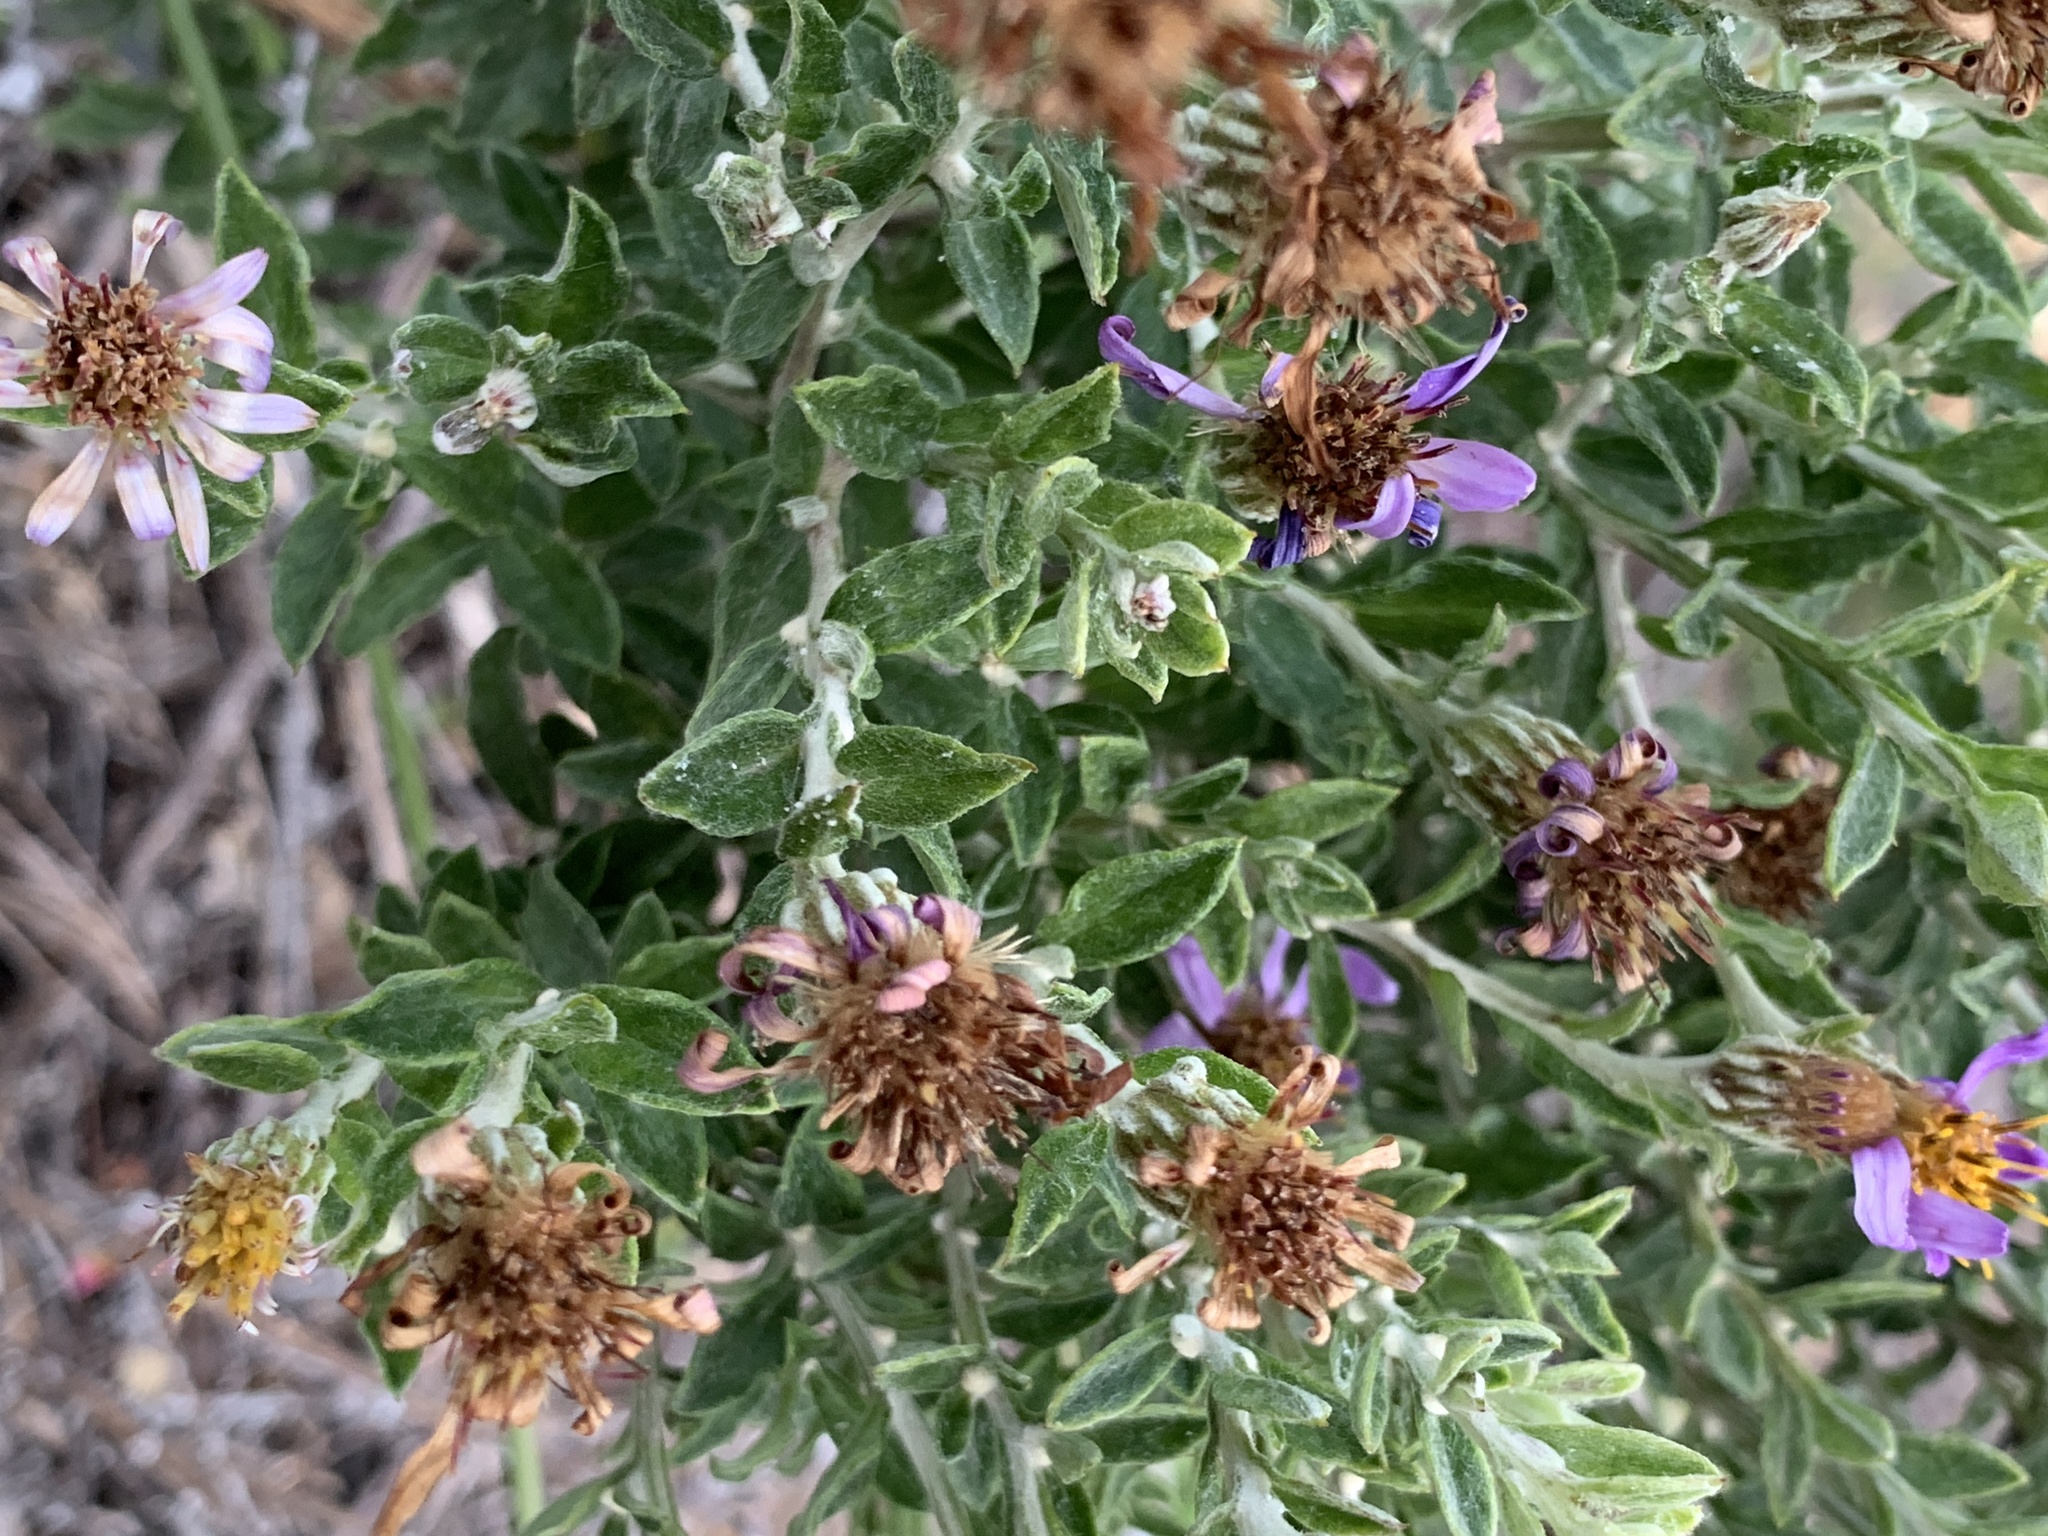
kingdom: Plantae
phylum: Tracheophyta
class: Magnoliopsida
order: Asterales
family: Asteraceae
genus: Printzia
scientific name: Printzia polifolia
